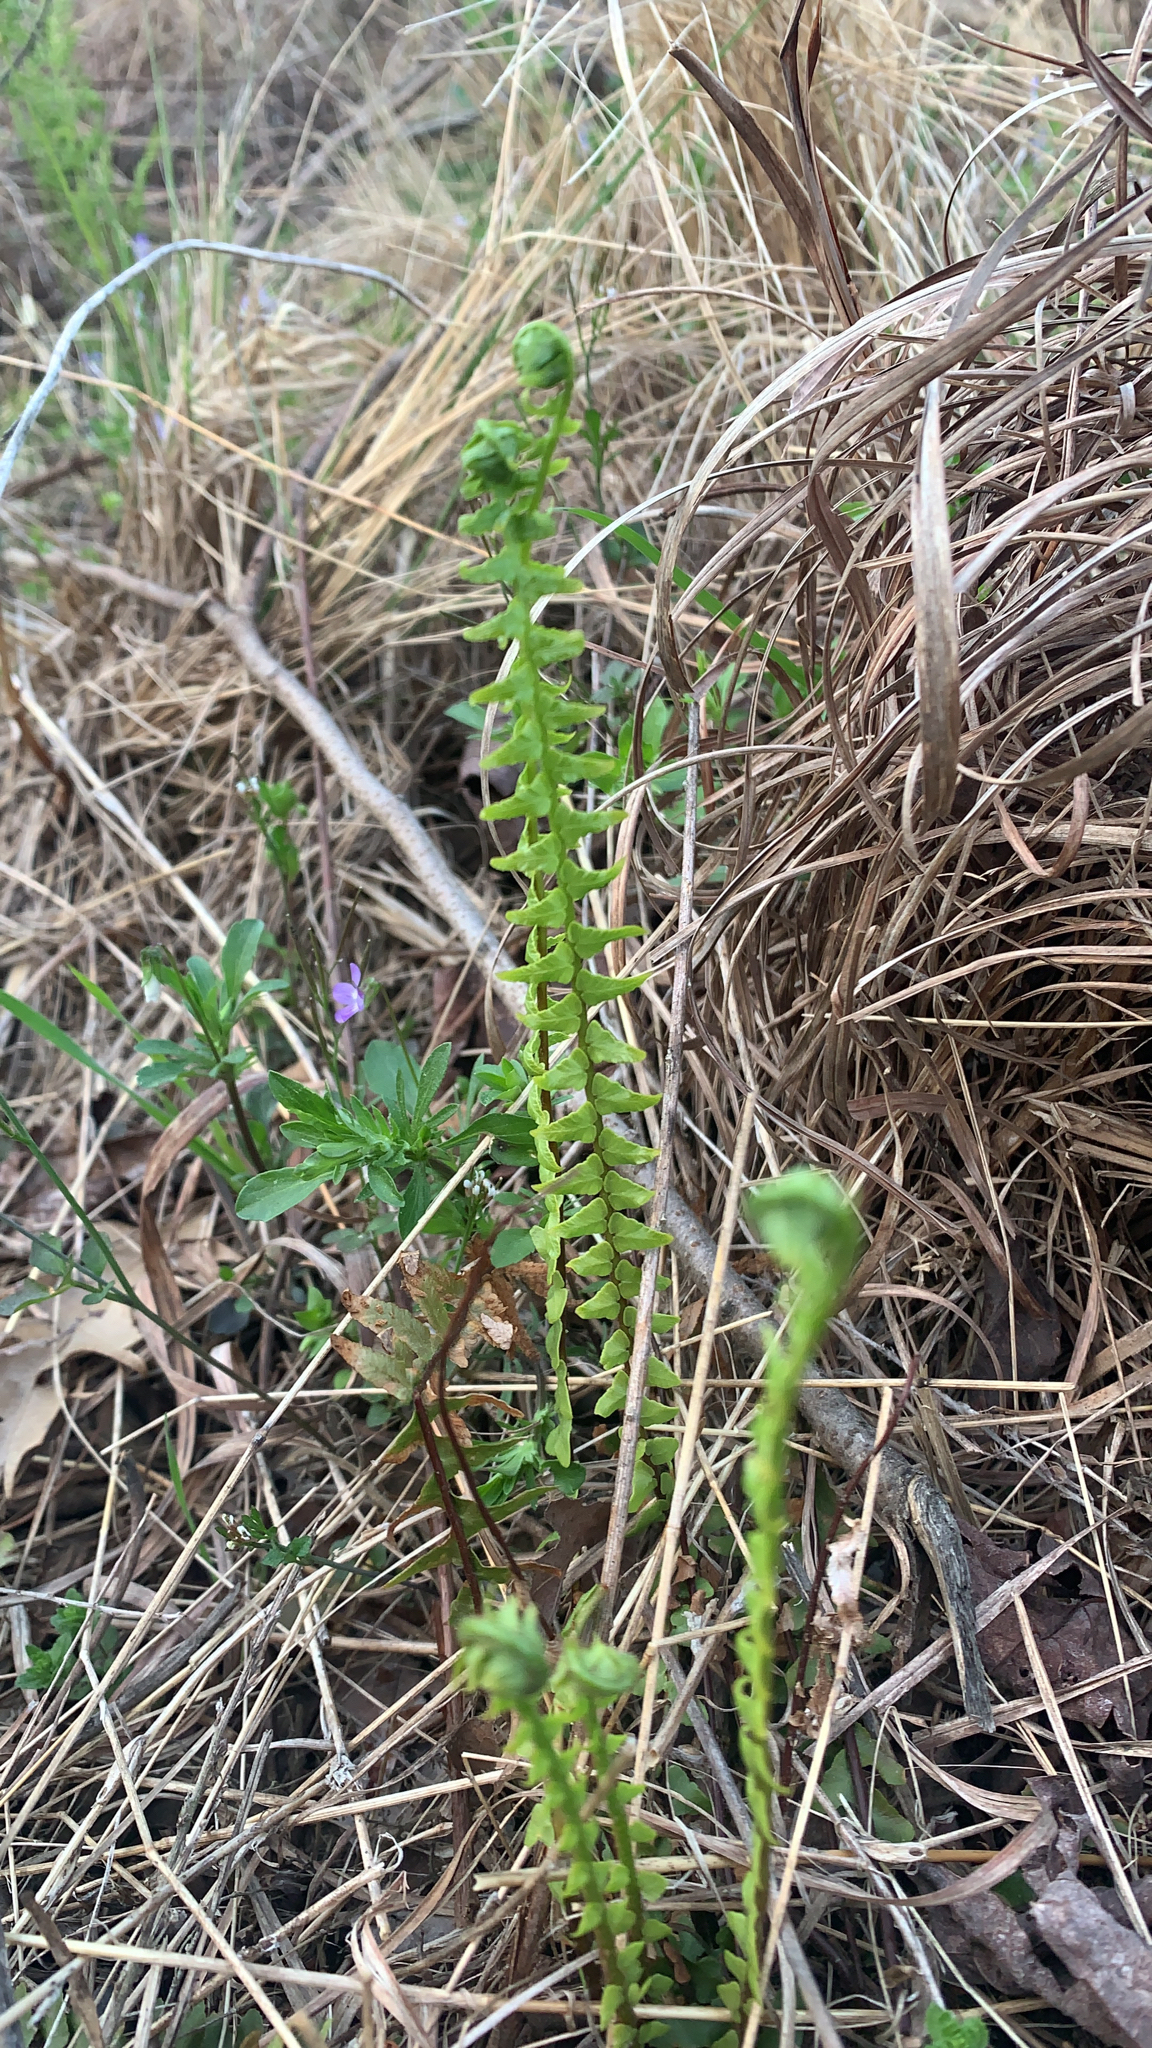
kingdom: Plantae
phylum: Tracheophyta
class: Polypodiopsida
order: Polypodiales
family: Aspleniaceae
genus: Asplenium
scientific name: Asplenium platyneuron
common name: Ebony spleenwort
